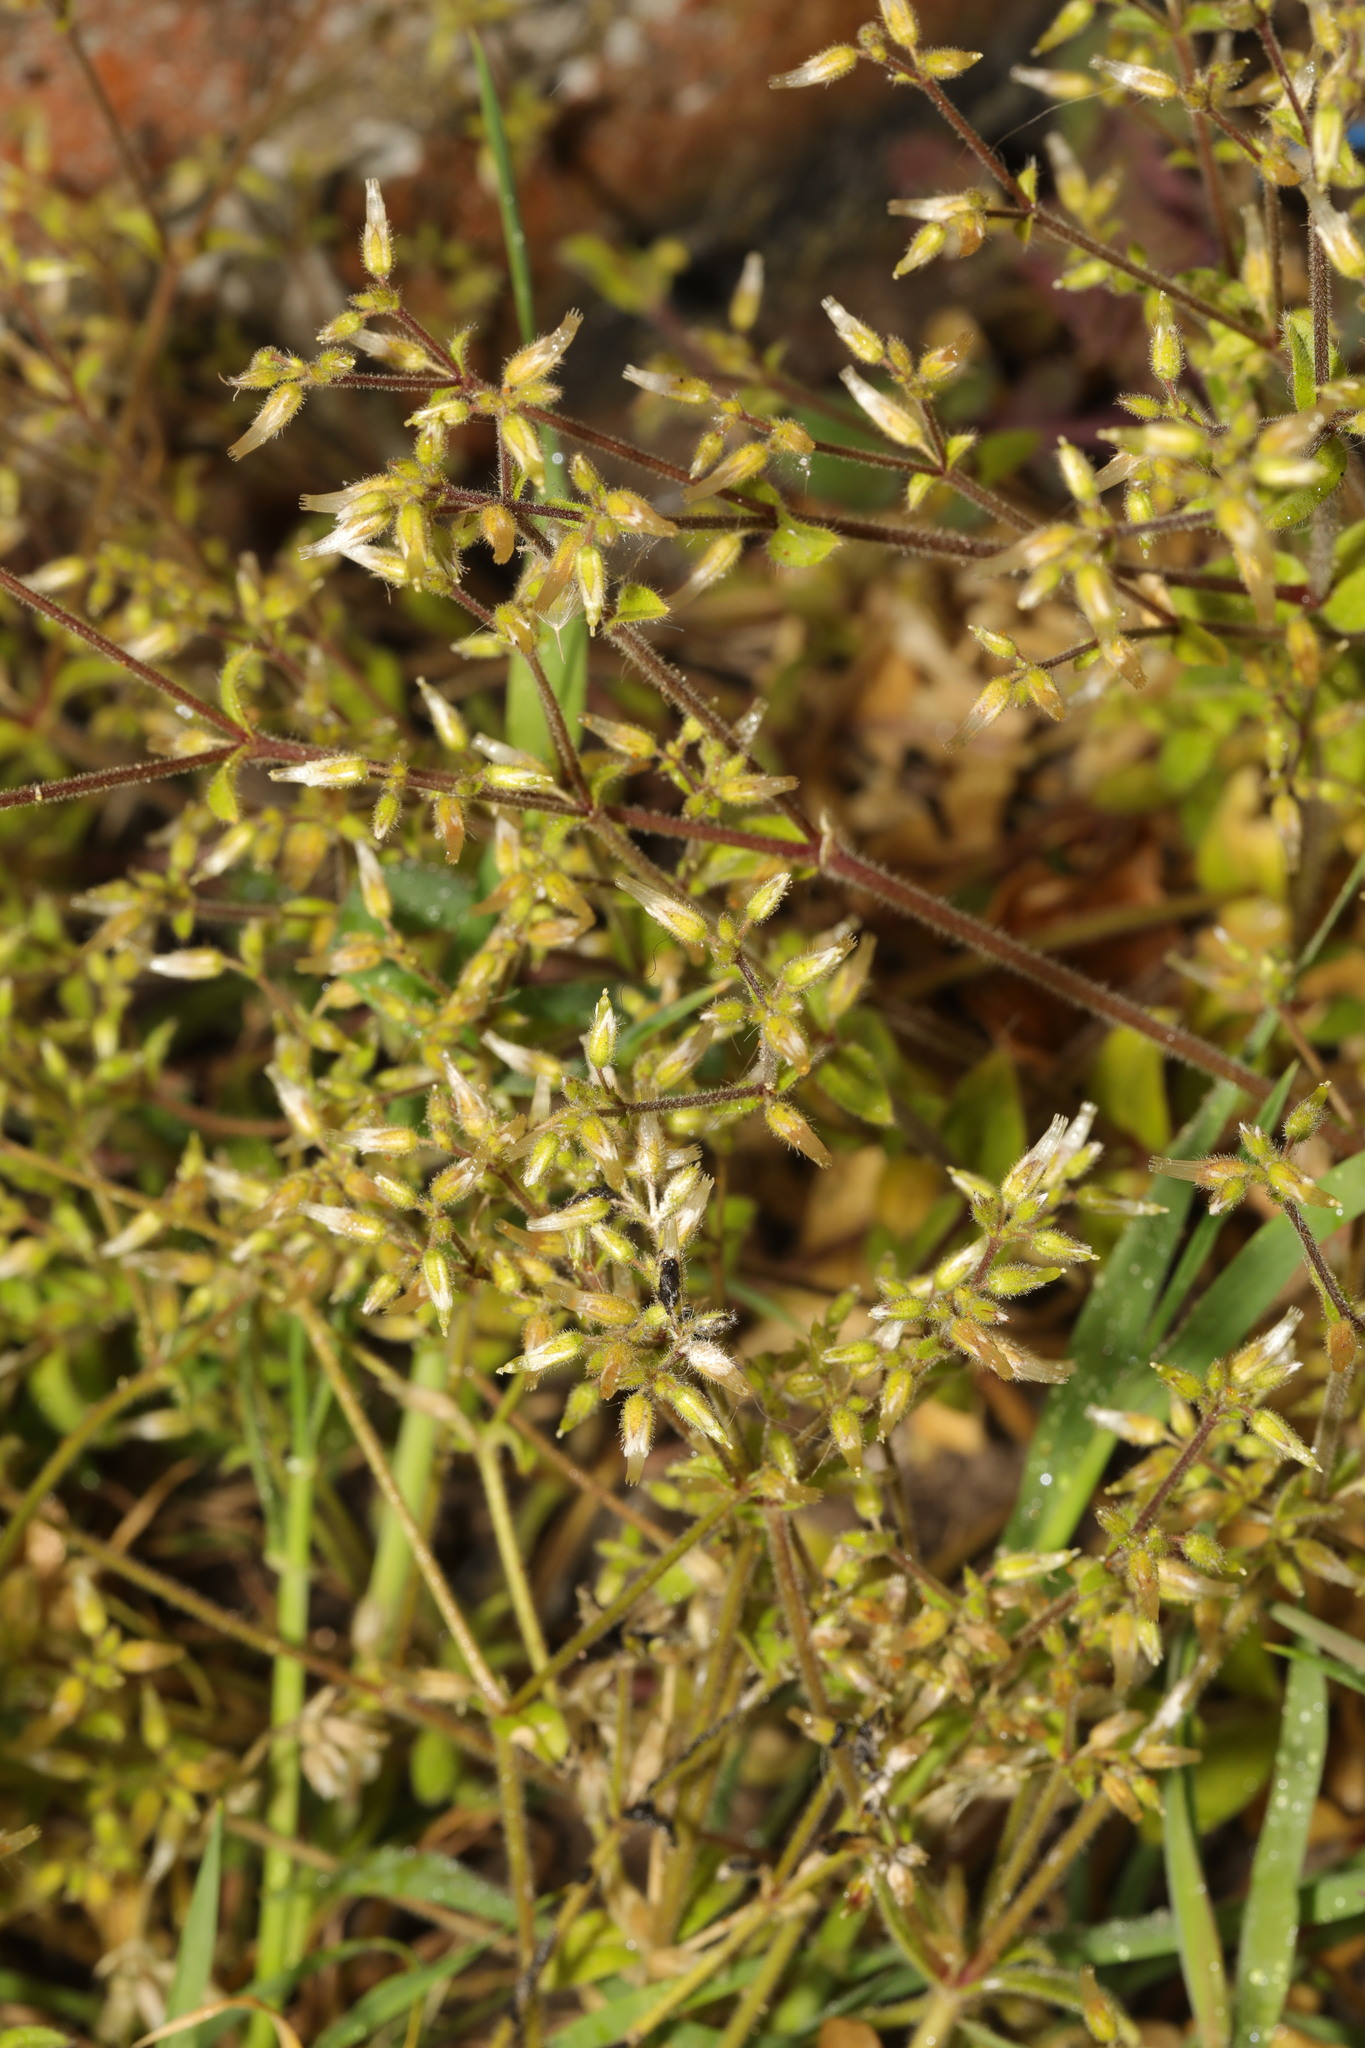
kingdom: Plantae
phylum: Tracheophyta
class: Magnoliopsida
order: Caryophyllales
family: Caryophyllaceae
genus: Cerastium
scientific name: Cerastium glomeratum
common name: Sticky chickweed
